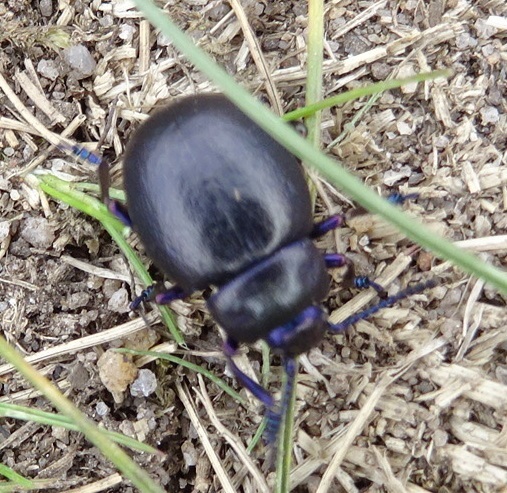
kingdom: Animalia
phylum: Arthropoda
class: Insecta
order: Coleoptera
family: Chrysomelidae
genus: Timarcha
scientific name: Timarcha goettingensis
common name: Small bloody-nosed beetle
